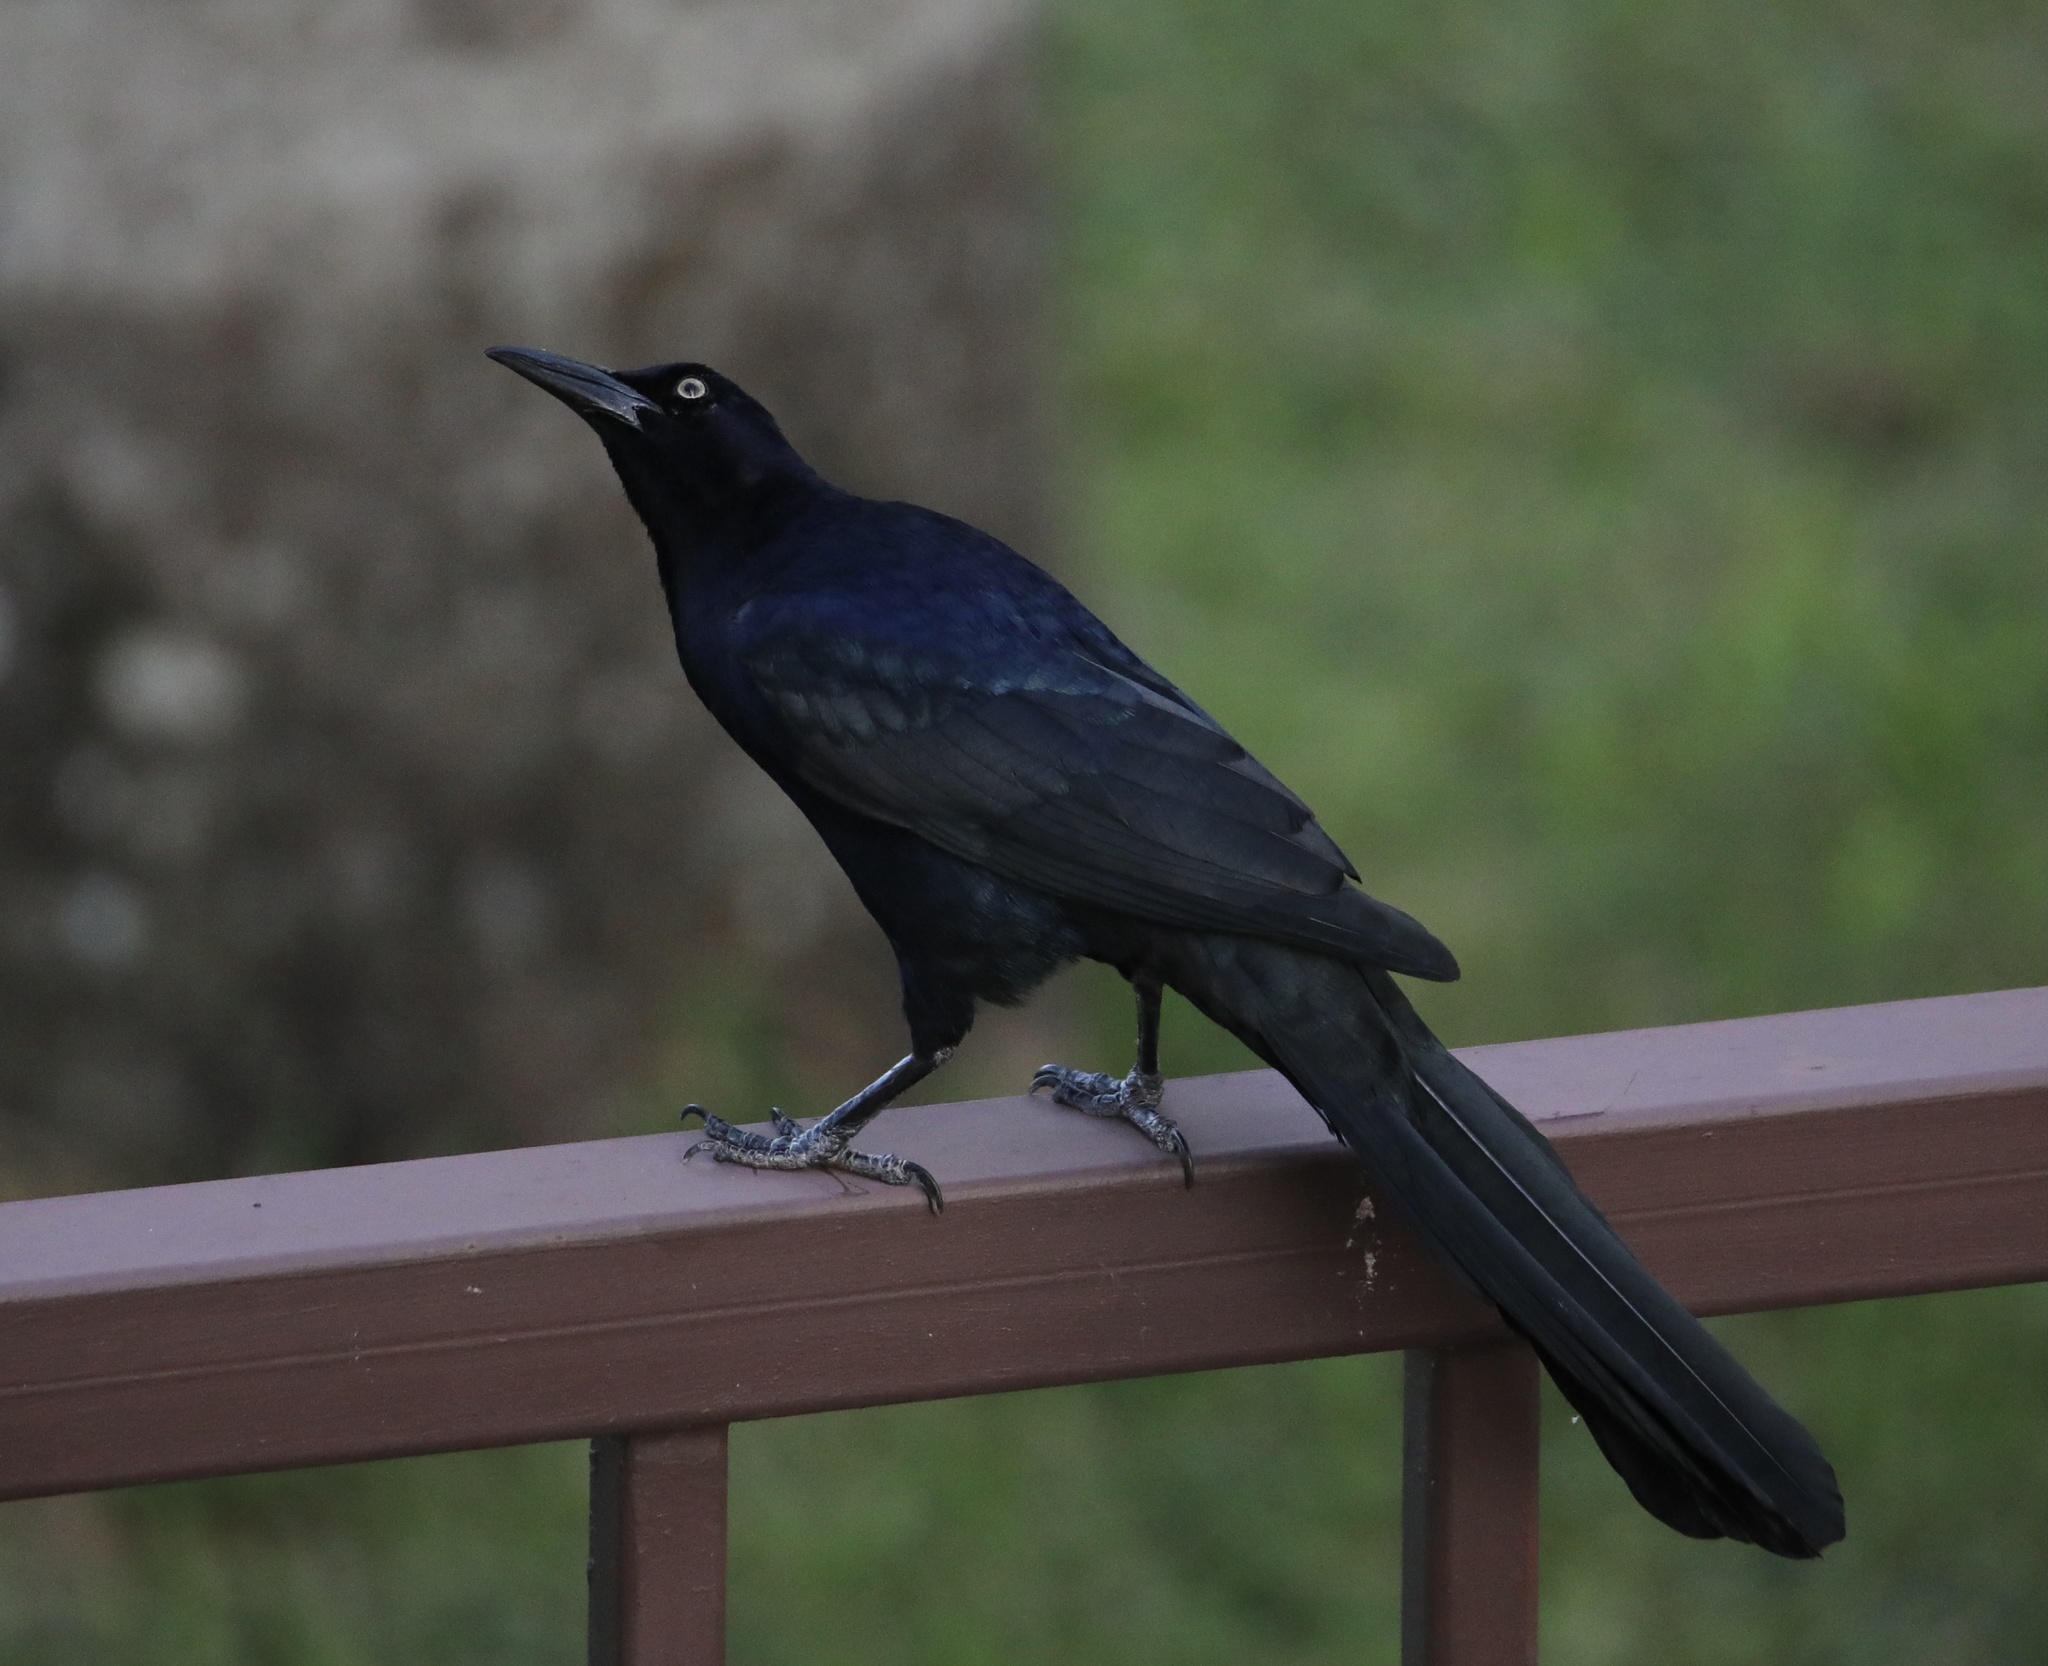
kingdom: Animalia
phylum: Chordata
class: Aves
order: Passeriformes
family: Icteridae
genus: Quiscalus
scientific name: Quiscalus mexicanus
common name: Great-tailed grackle
